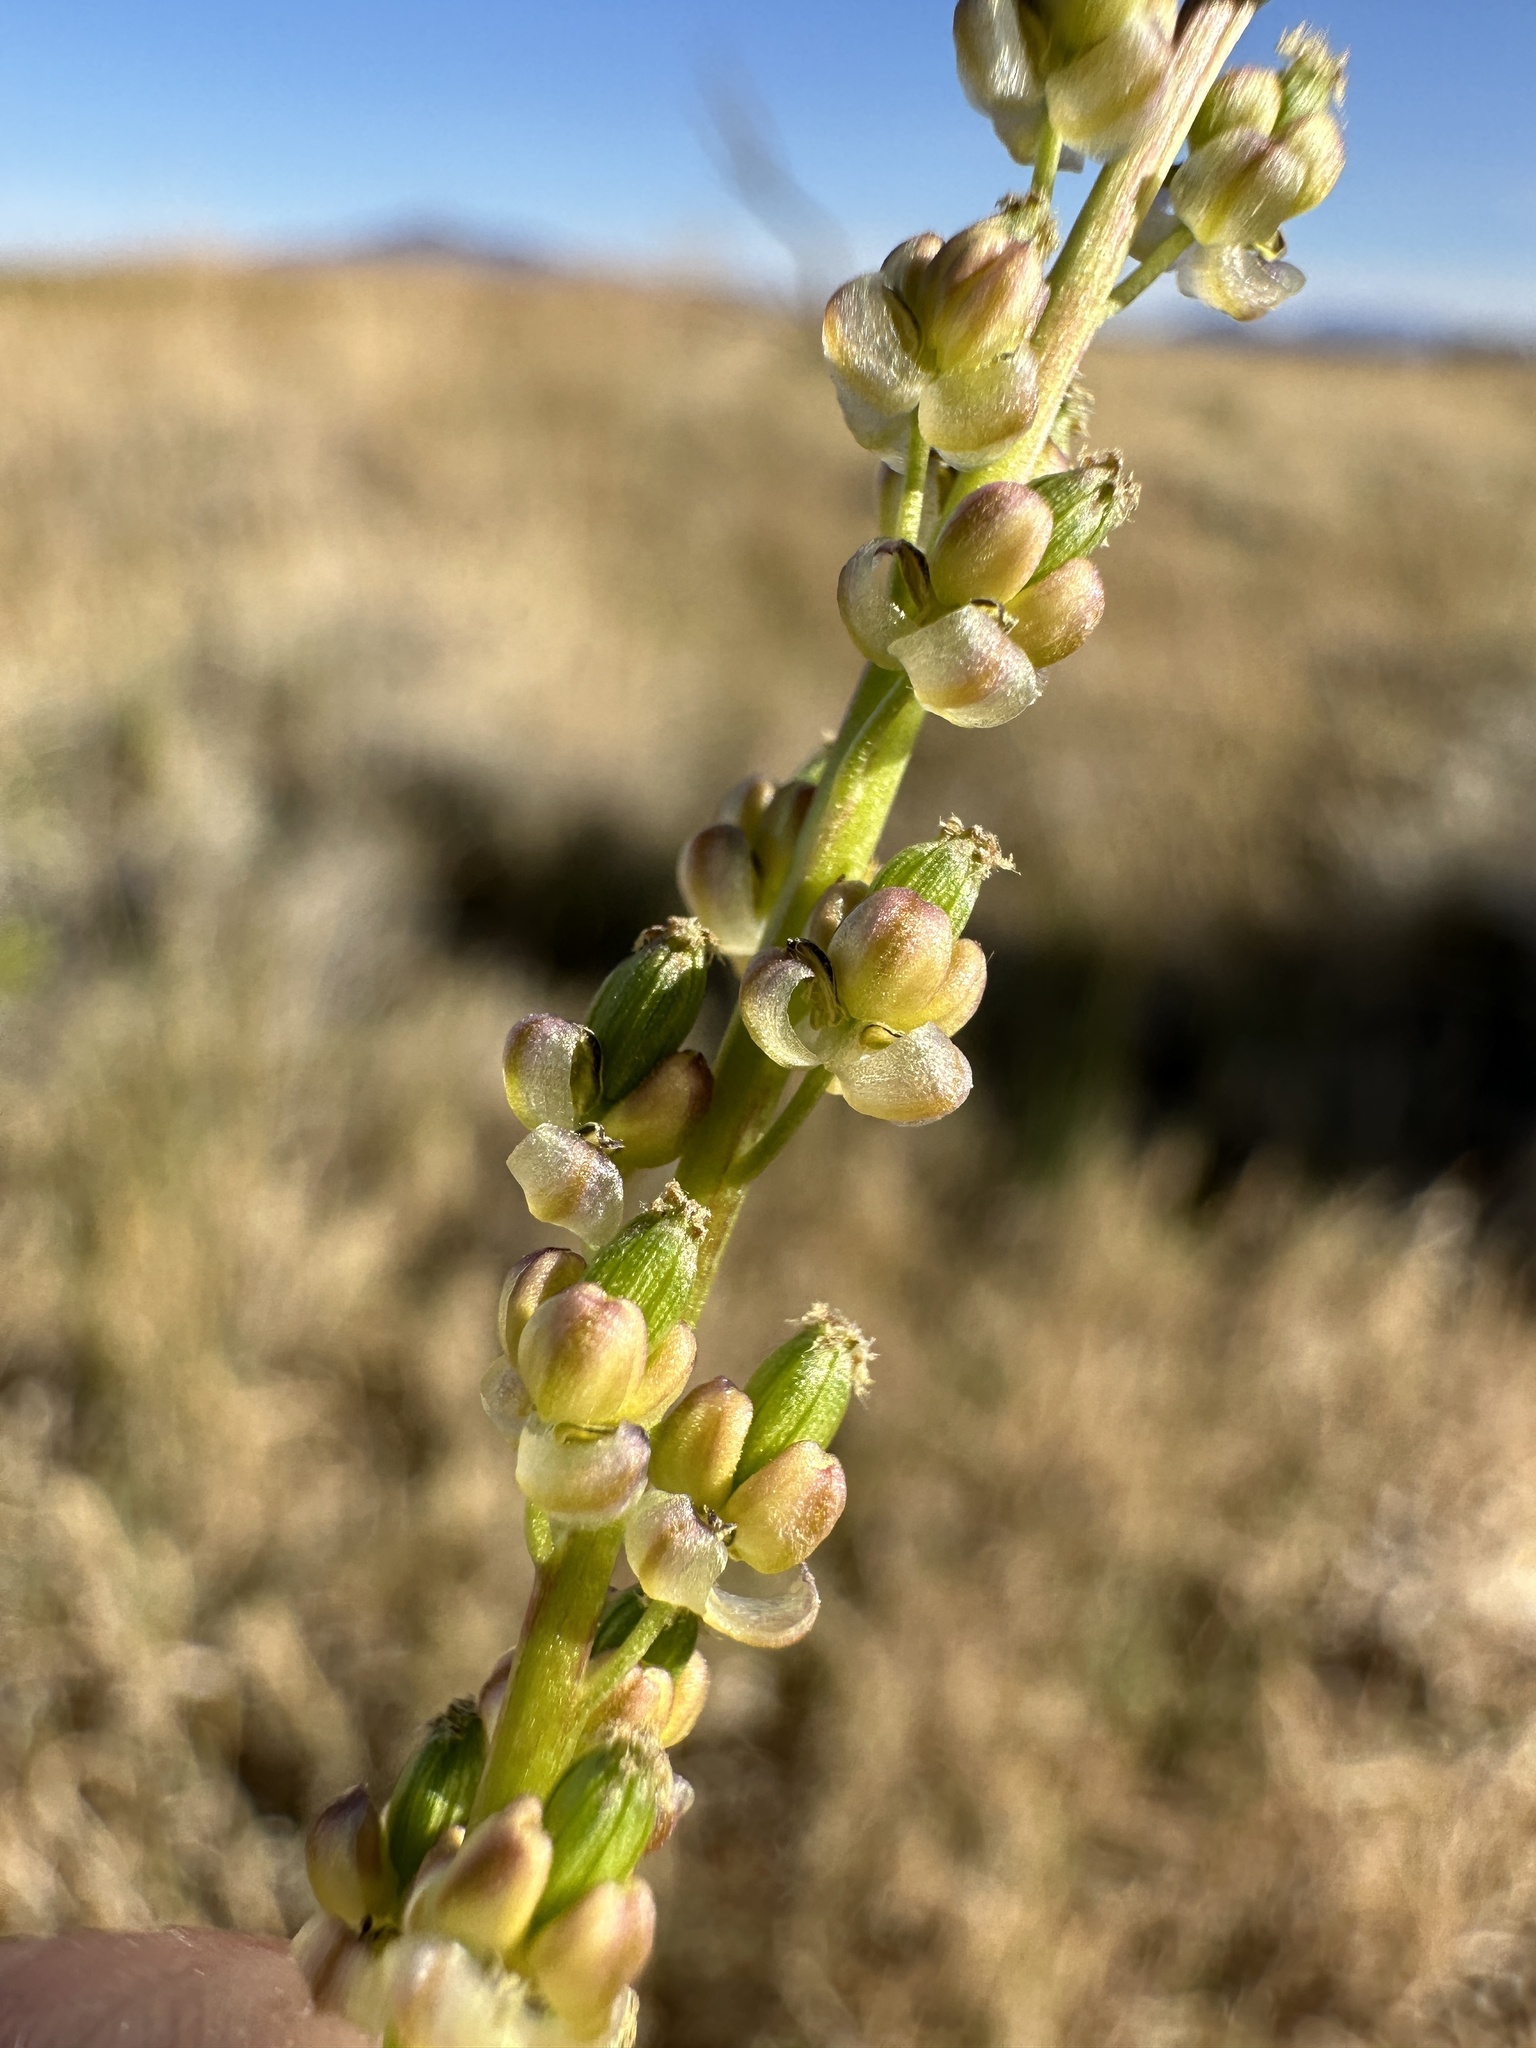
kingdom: Plantae
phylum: Tracheophyta
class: Liliopsida
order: Alismatales
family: Juncaginaceae
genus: Triglochin
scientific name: Triglochin maritima
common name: Sea arrowgrass
